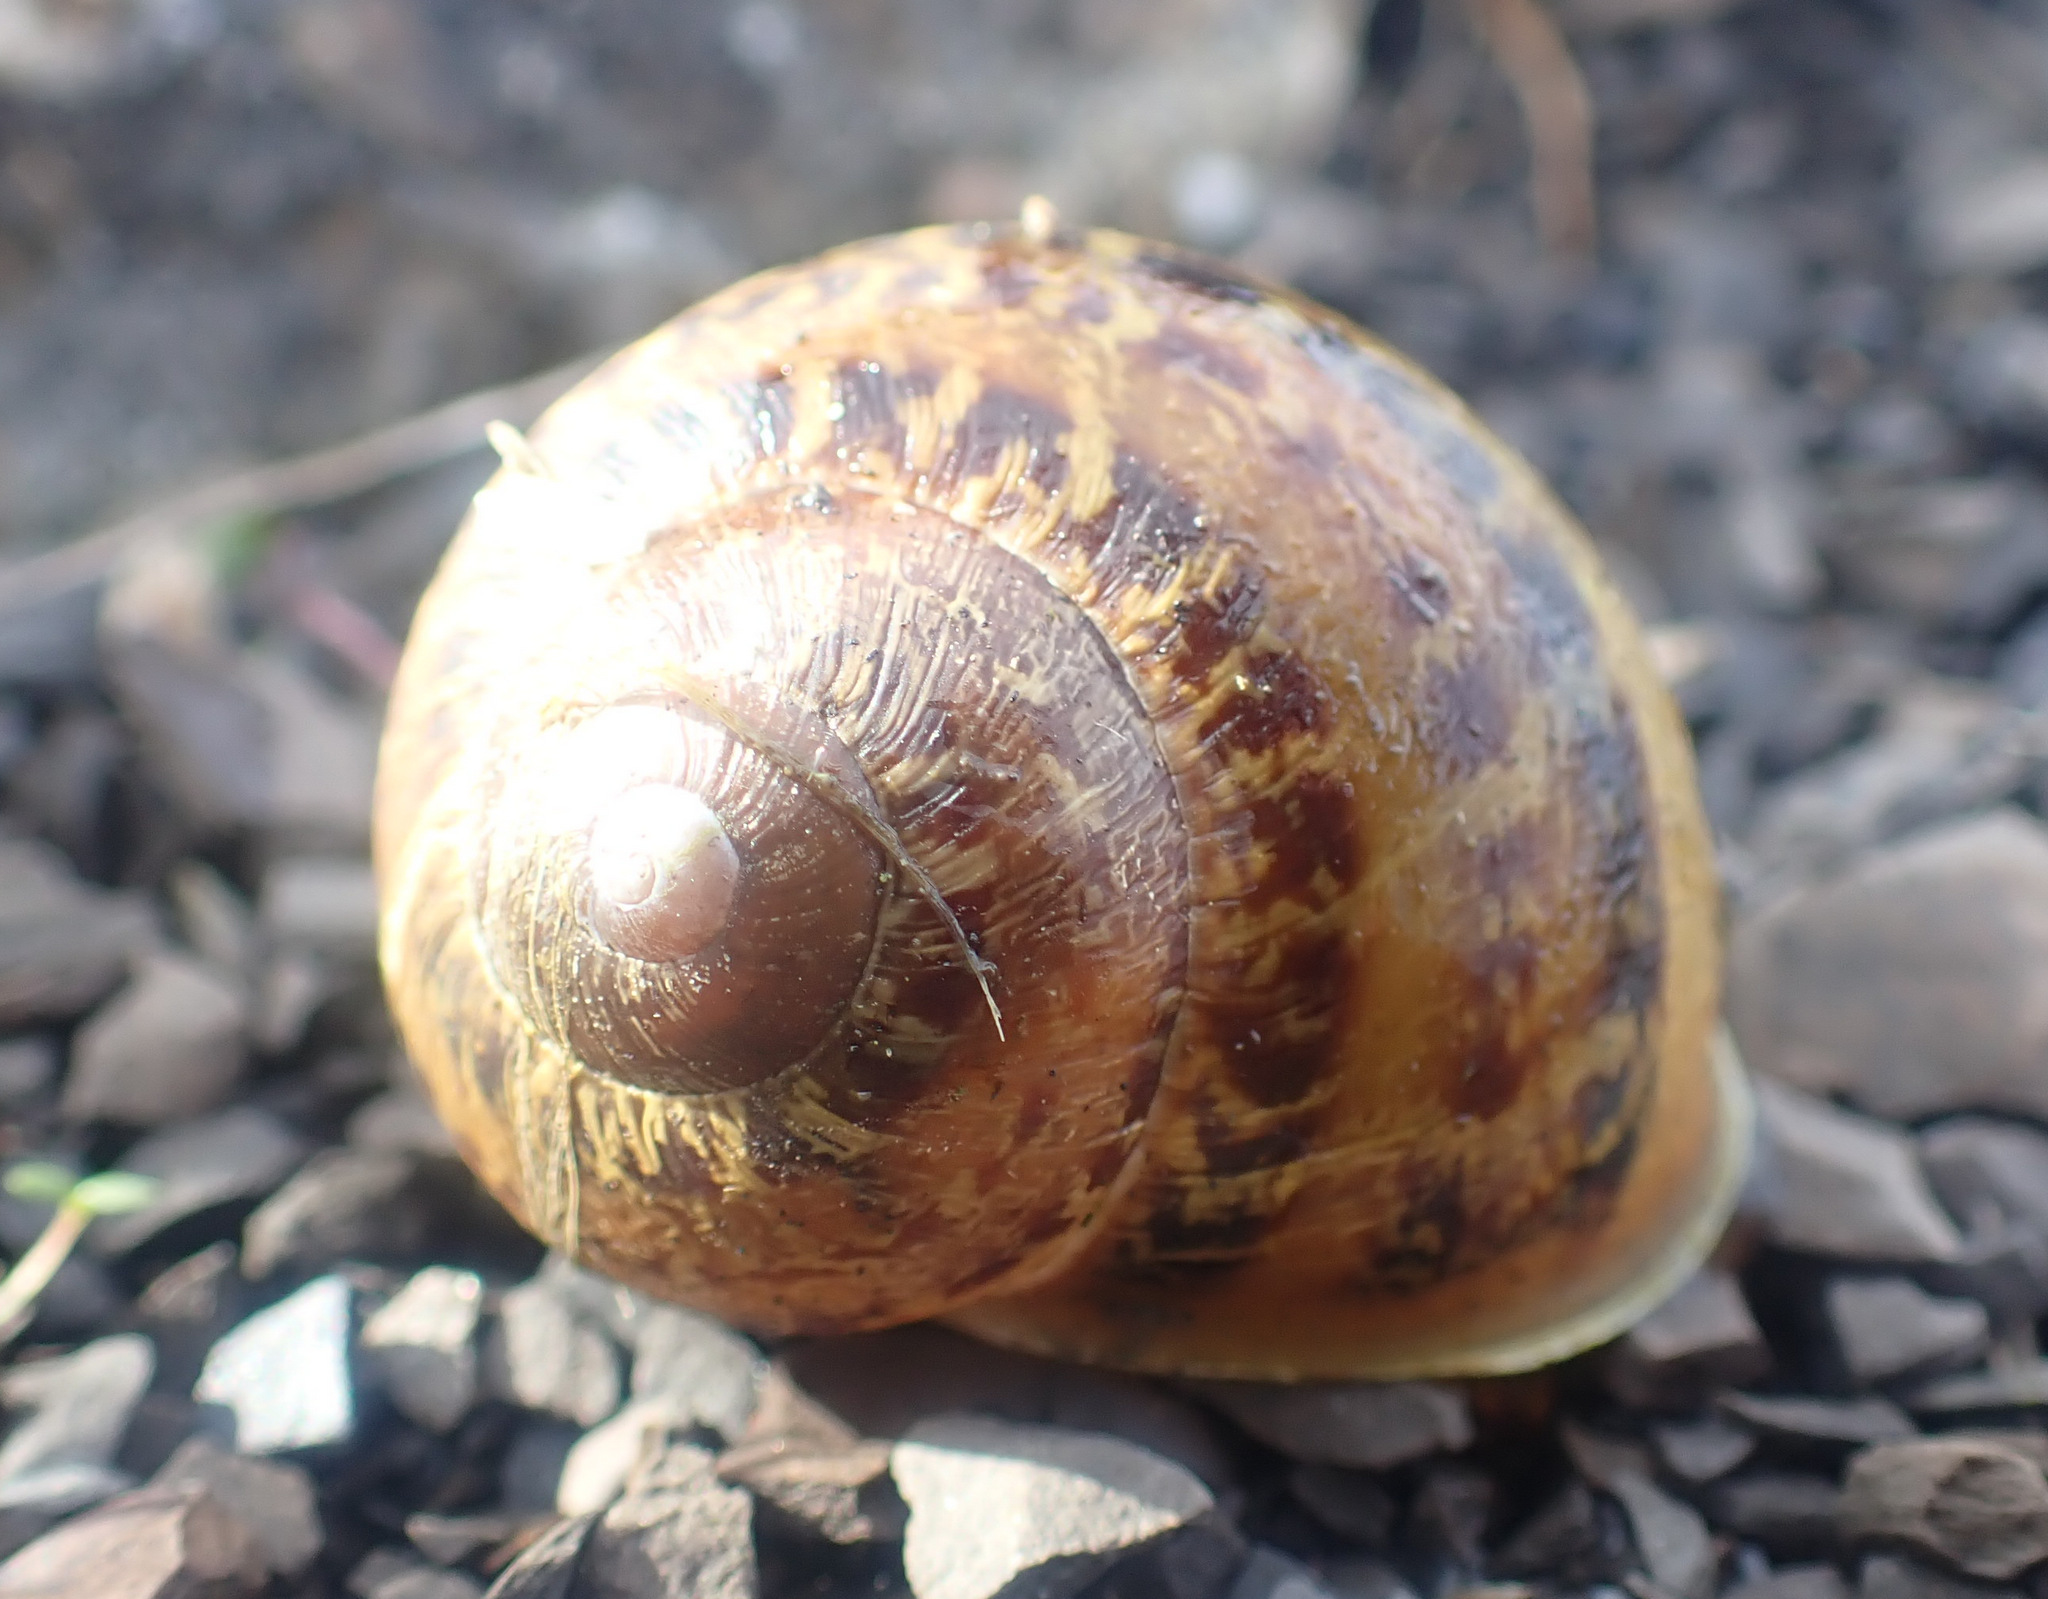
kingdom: Animalia
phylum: Mollusca
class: Gastropoda
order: Stylommatophora
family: Helicidae
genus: Cornu
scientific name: Cornu aspersum
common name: Brown garden snail
